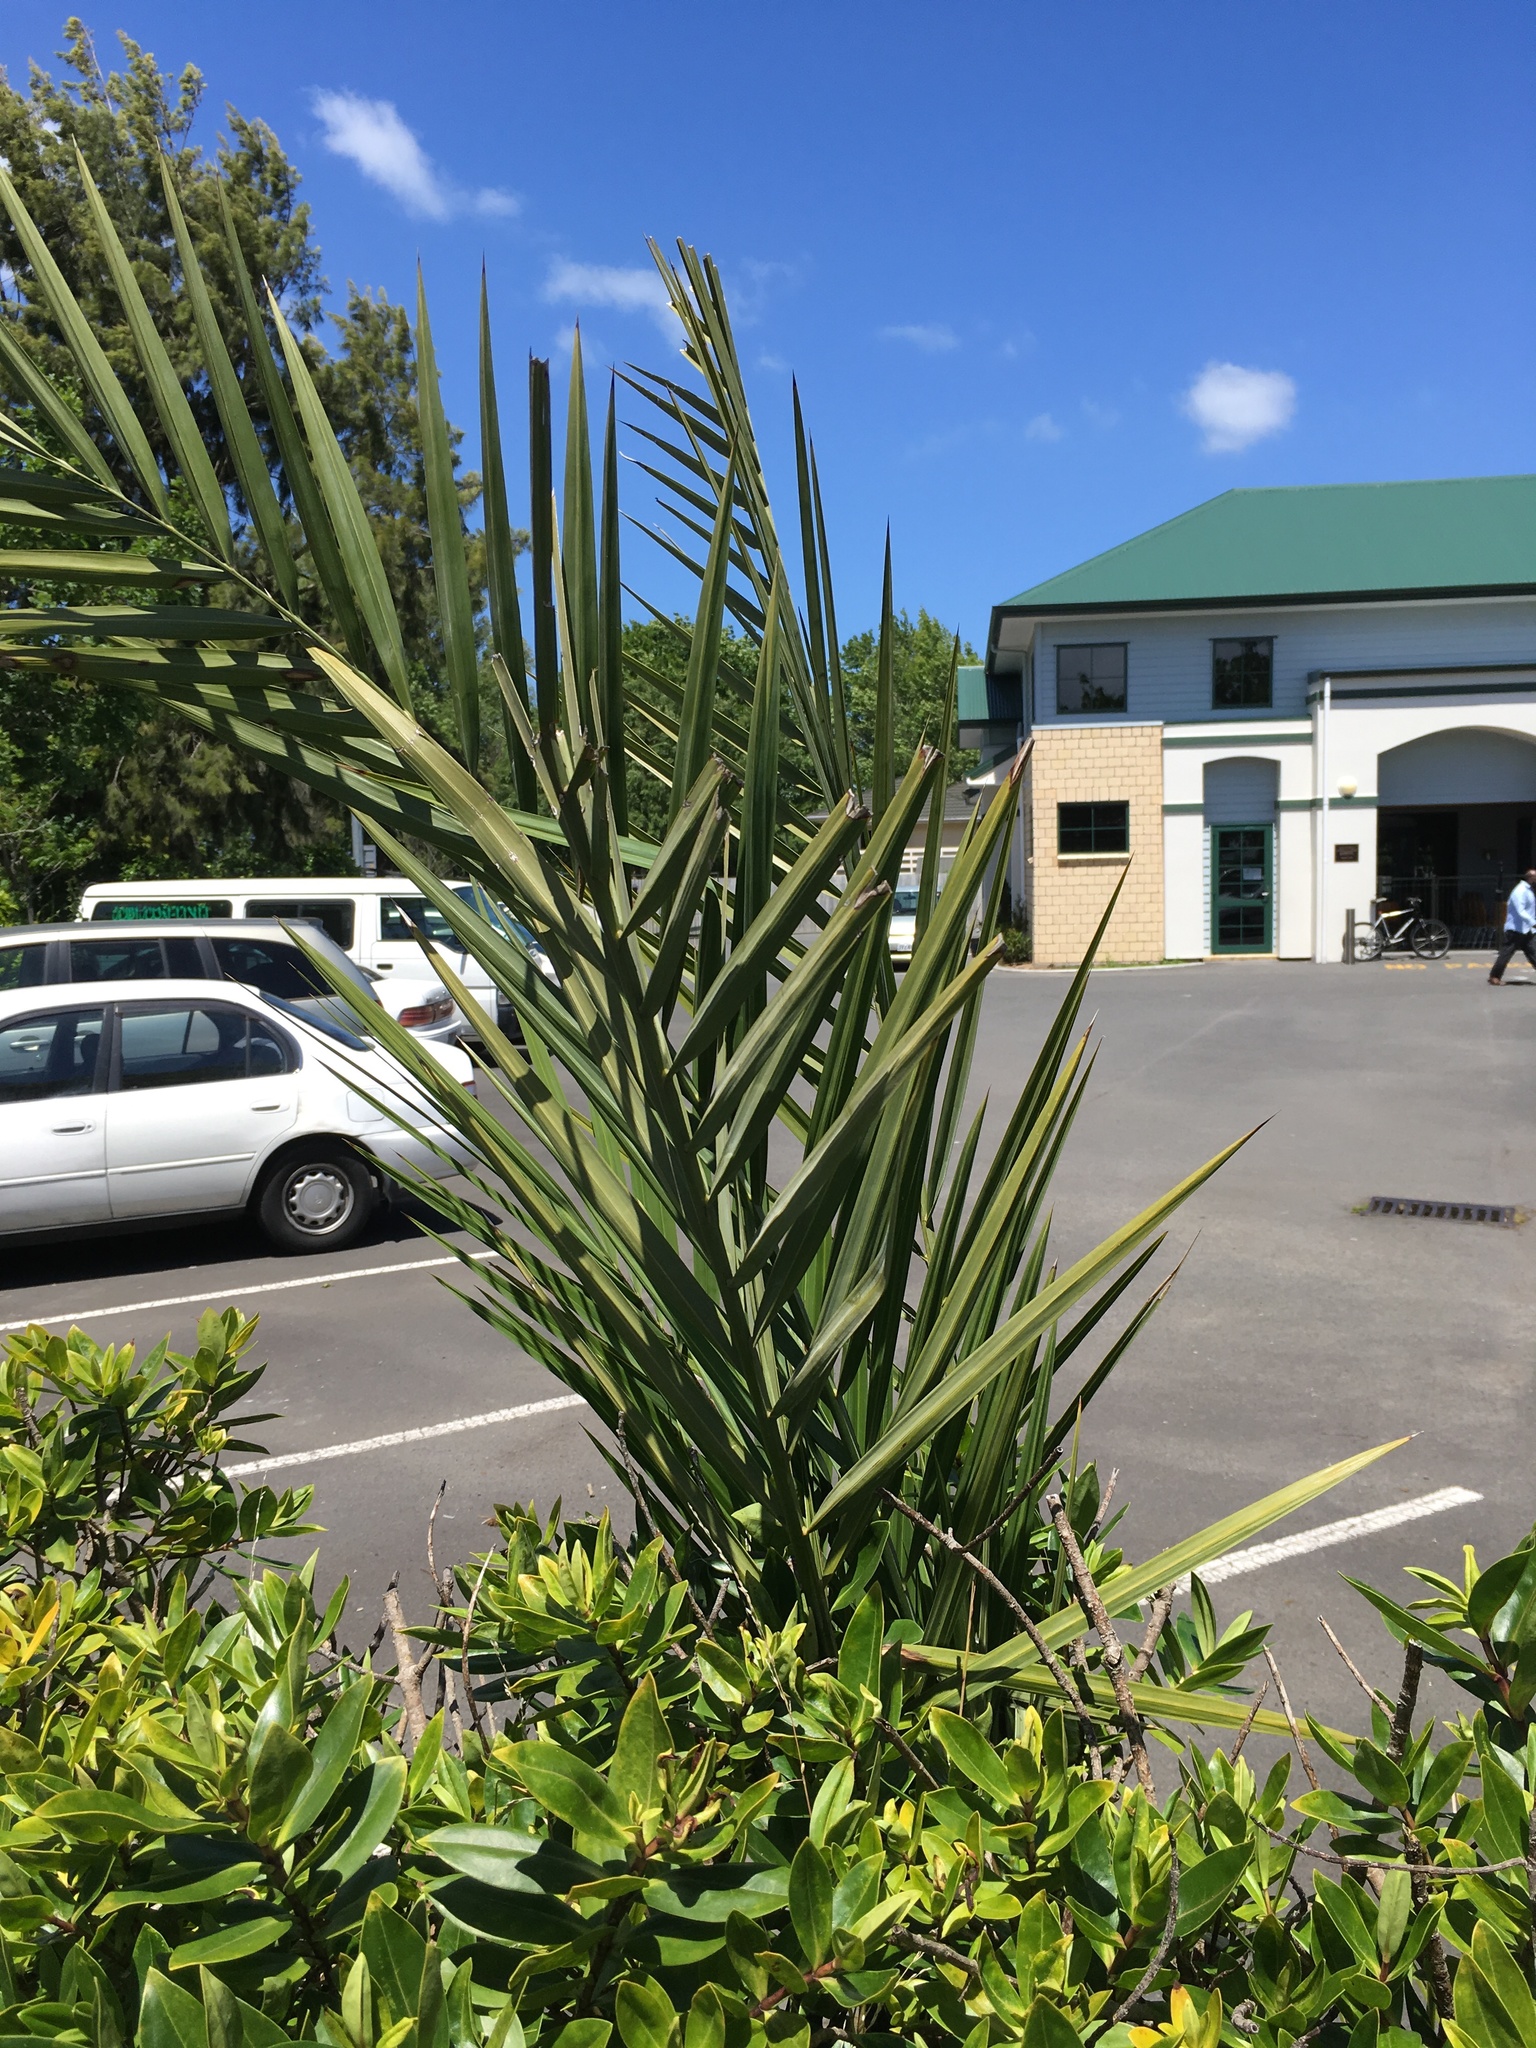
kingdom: Plantae
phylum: Tracheophyta
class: Liliopsida
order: Arecales
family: Arecaceae
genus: Phoenix
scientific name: Phoenix canariensis
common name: Canary island date palm
